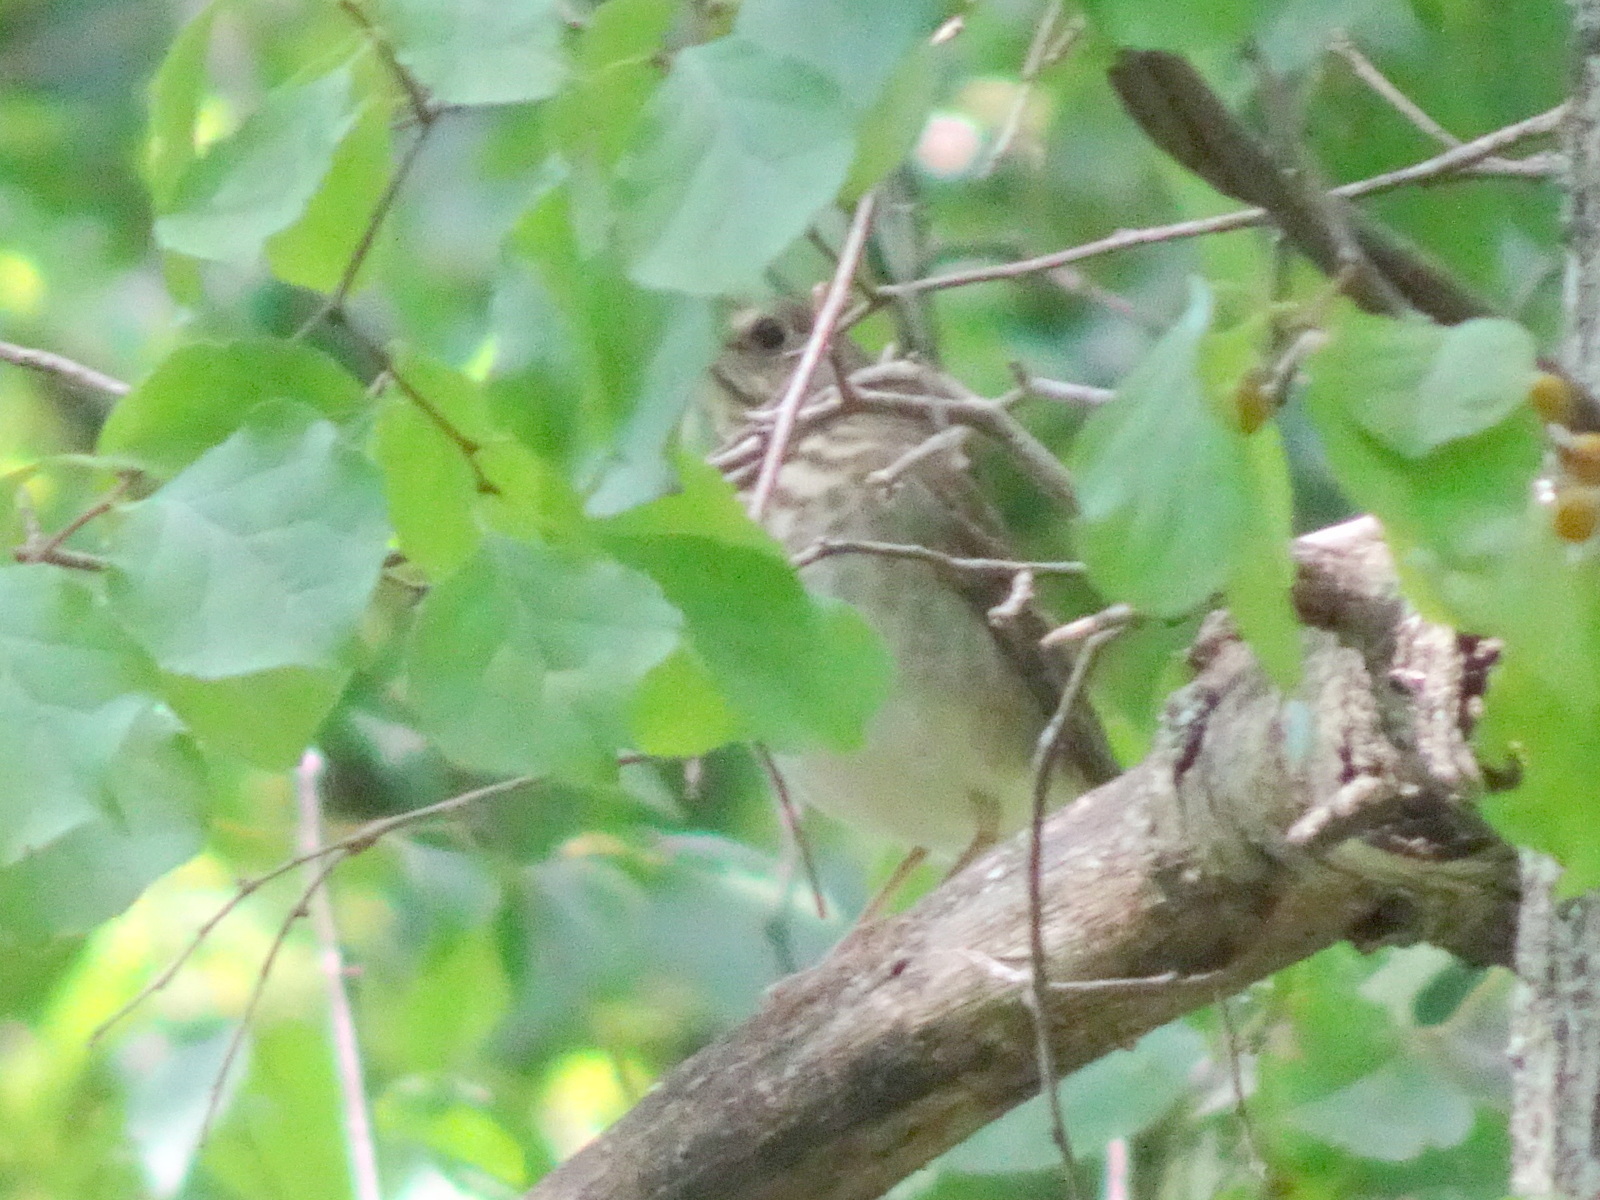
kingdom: Animalia
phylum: Chordata
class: Aves
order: Passeriformes
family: Turdidae
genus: Catharus
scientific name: Catharus minimus
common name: Grey-cheeked thrush
